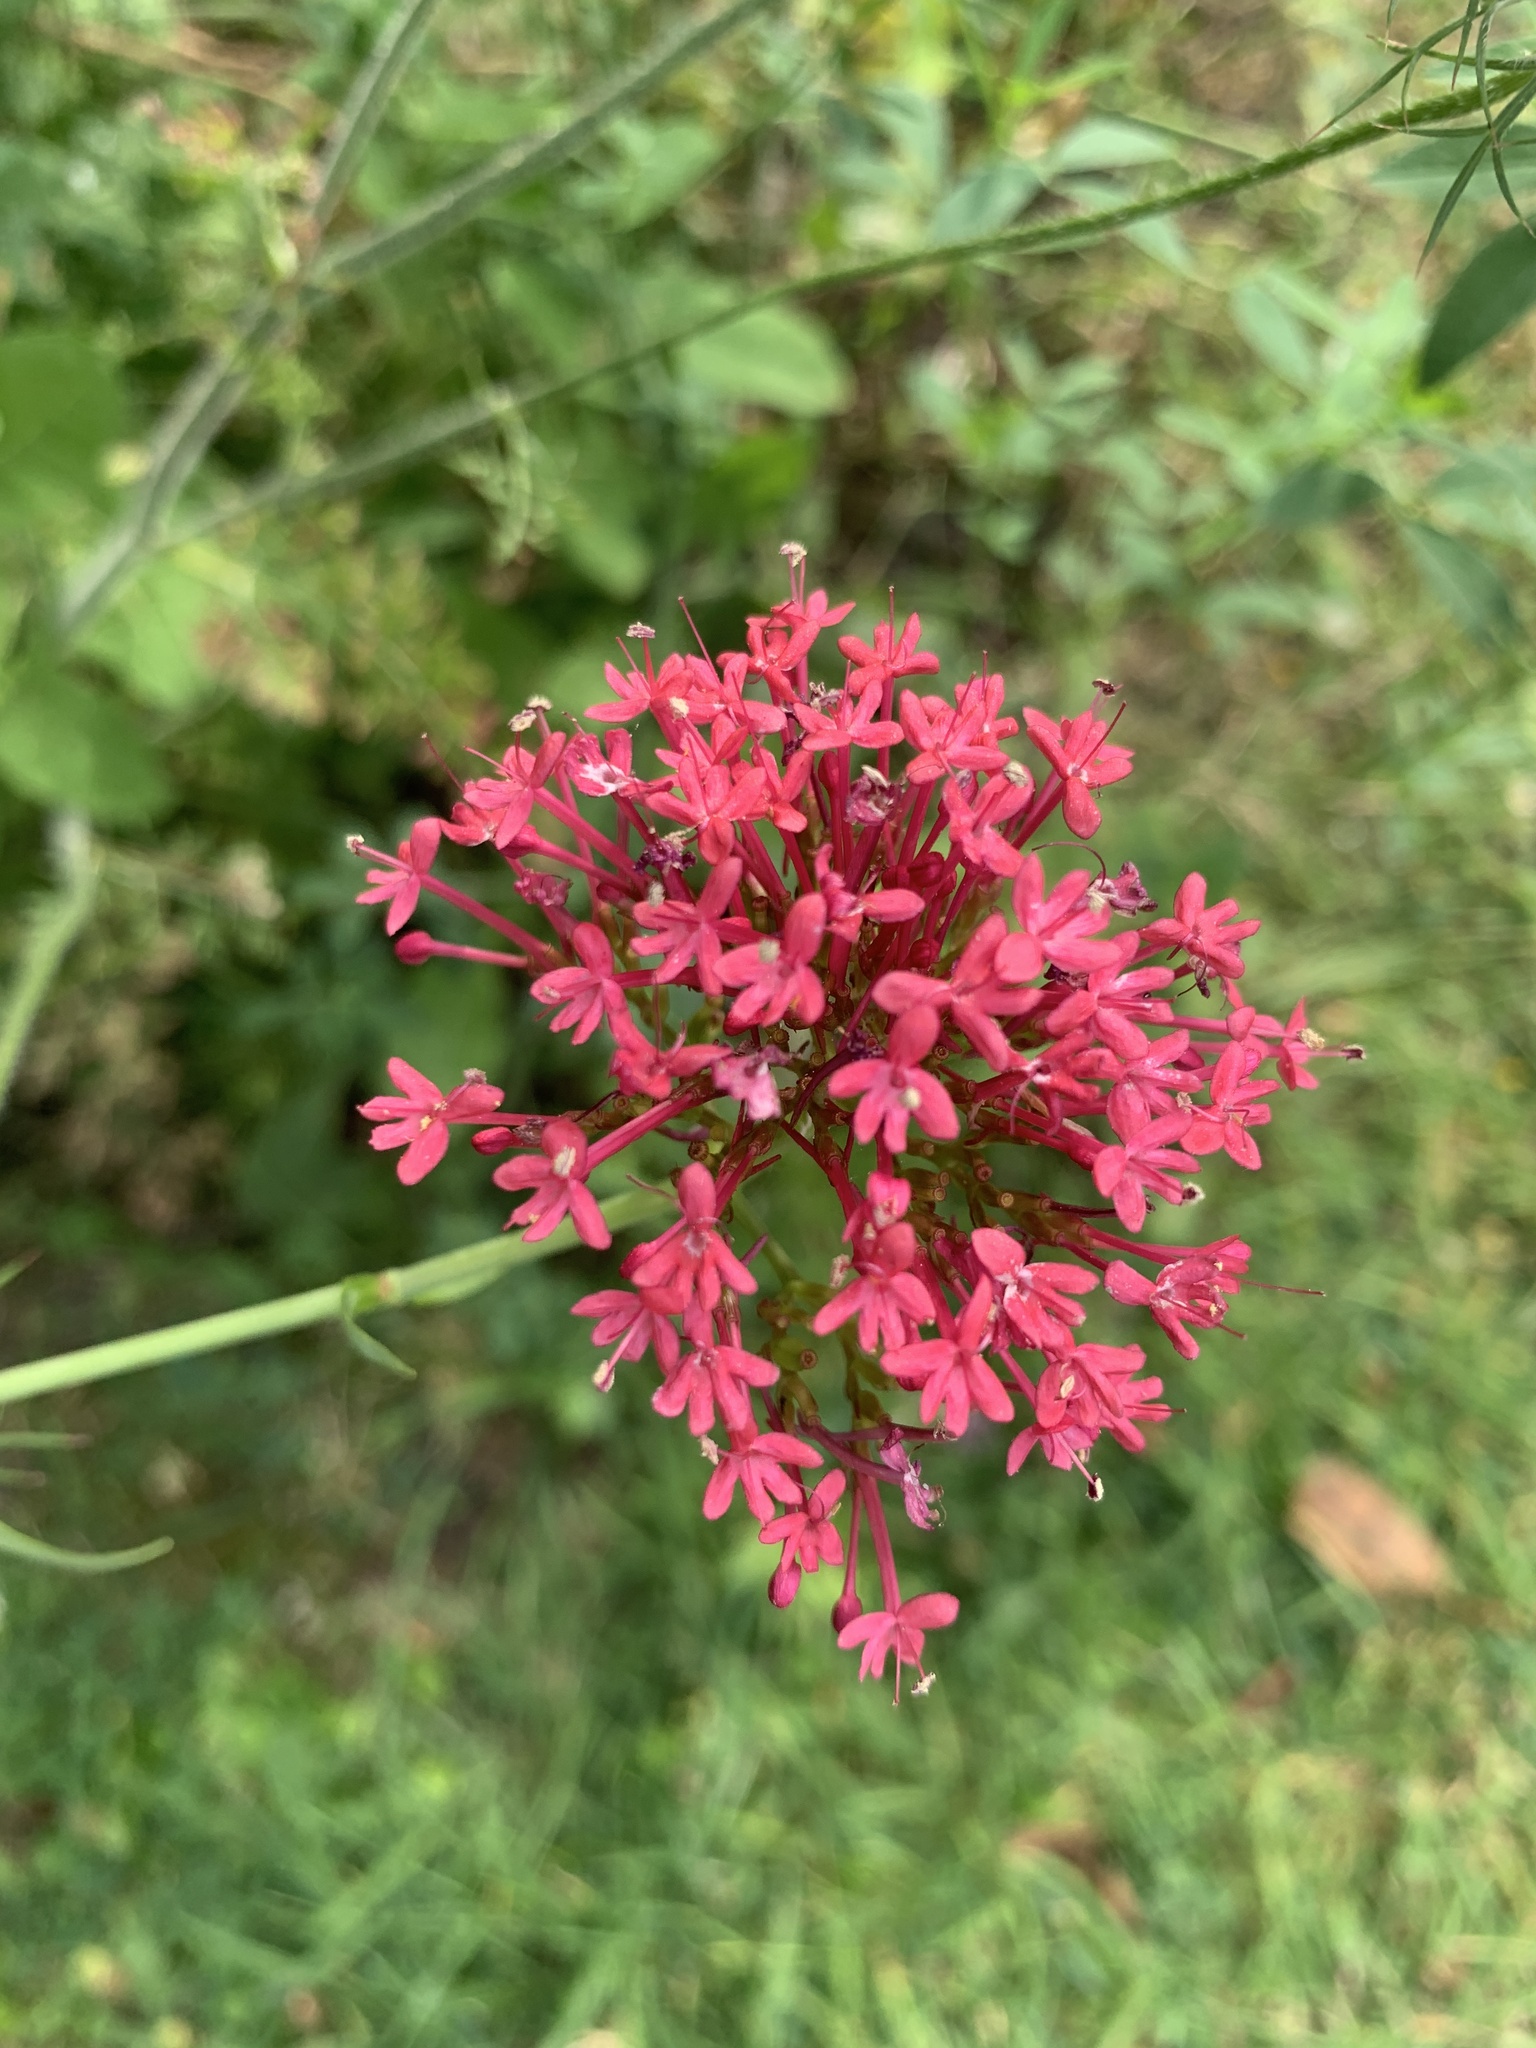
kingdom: Plantae
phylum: Tracheophyta
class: Magnoliopsida
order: Dipsacales
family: Caprifoliaceae
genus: Centranthus
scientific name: Centranthus ruber
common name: Red valerian
